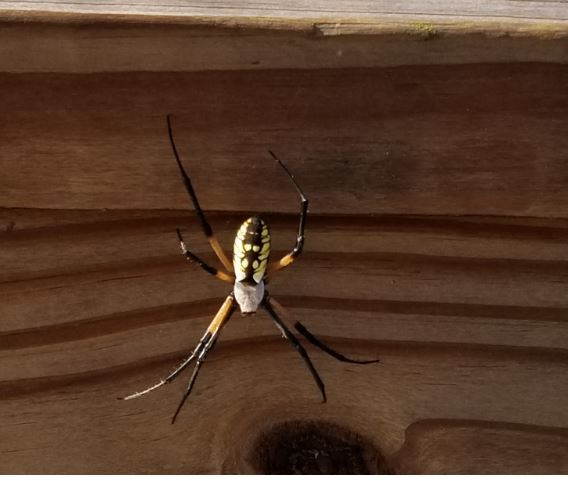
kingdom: Animalia
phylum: Arthropoda
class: Arachnida
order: Araneae
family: Araneidae
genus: Argiope
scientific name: Argiope aurantia
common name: Orb weavers
